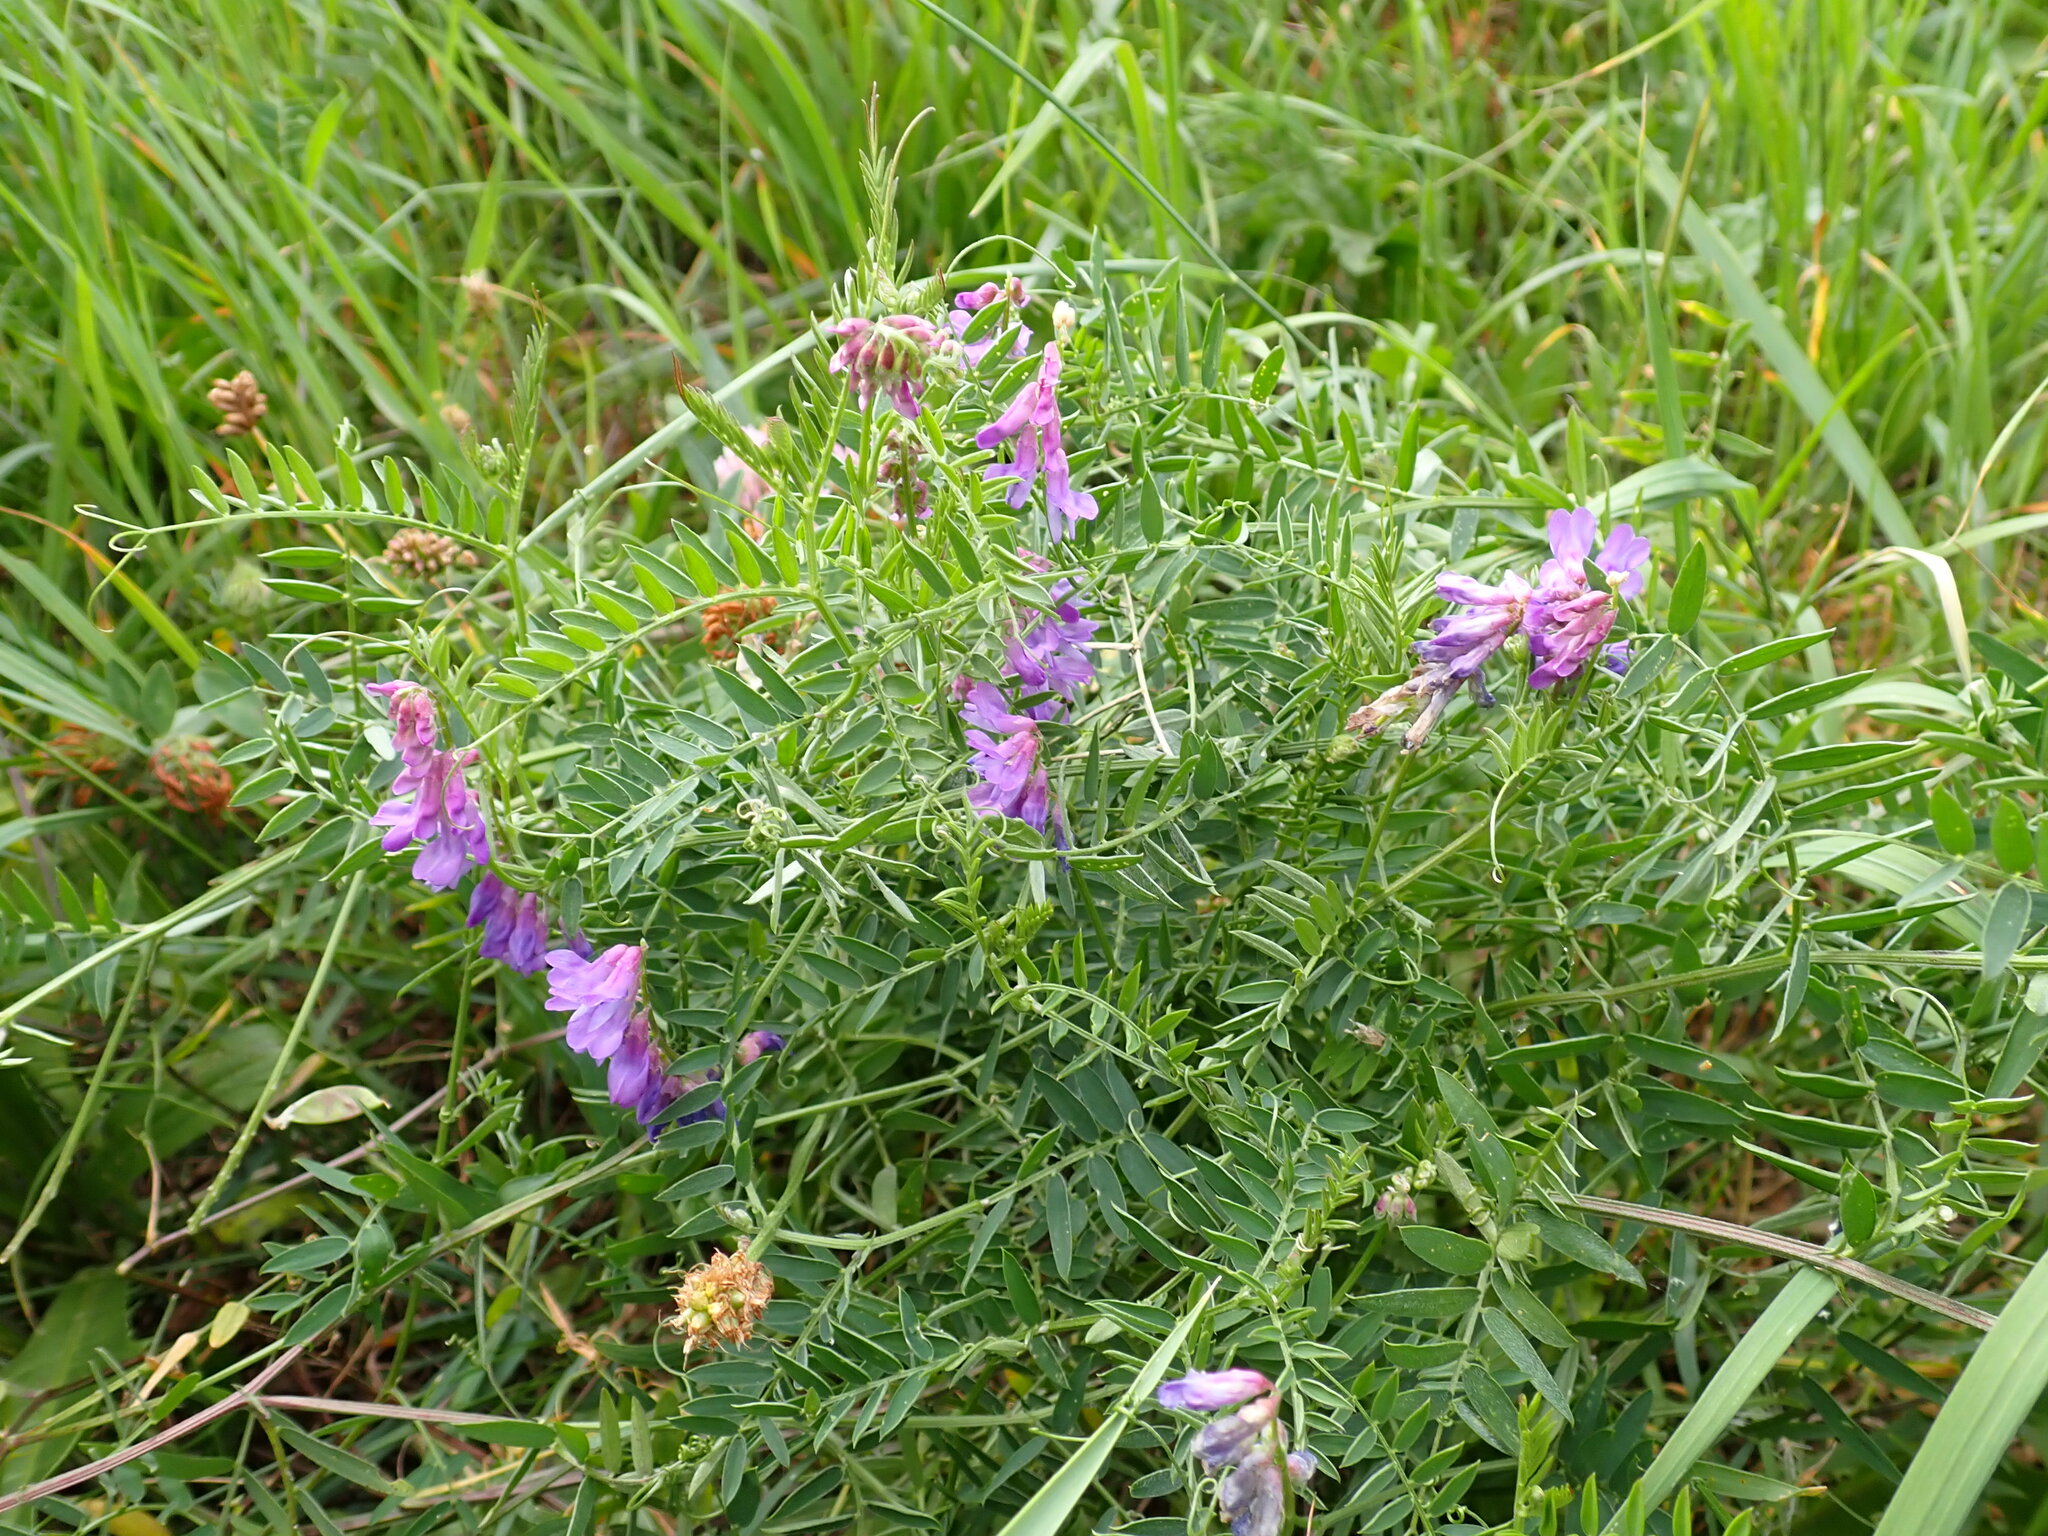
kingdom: Plantae
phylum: Tracheophyta
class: Magnoliopsida
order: Fabales
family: Fabaceae
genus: Vicia
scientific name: Vicia cracca
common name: Bird vetch
